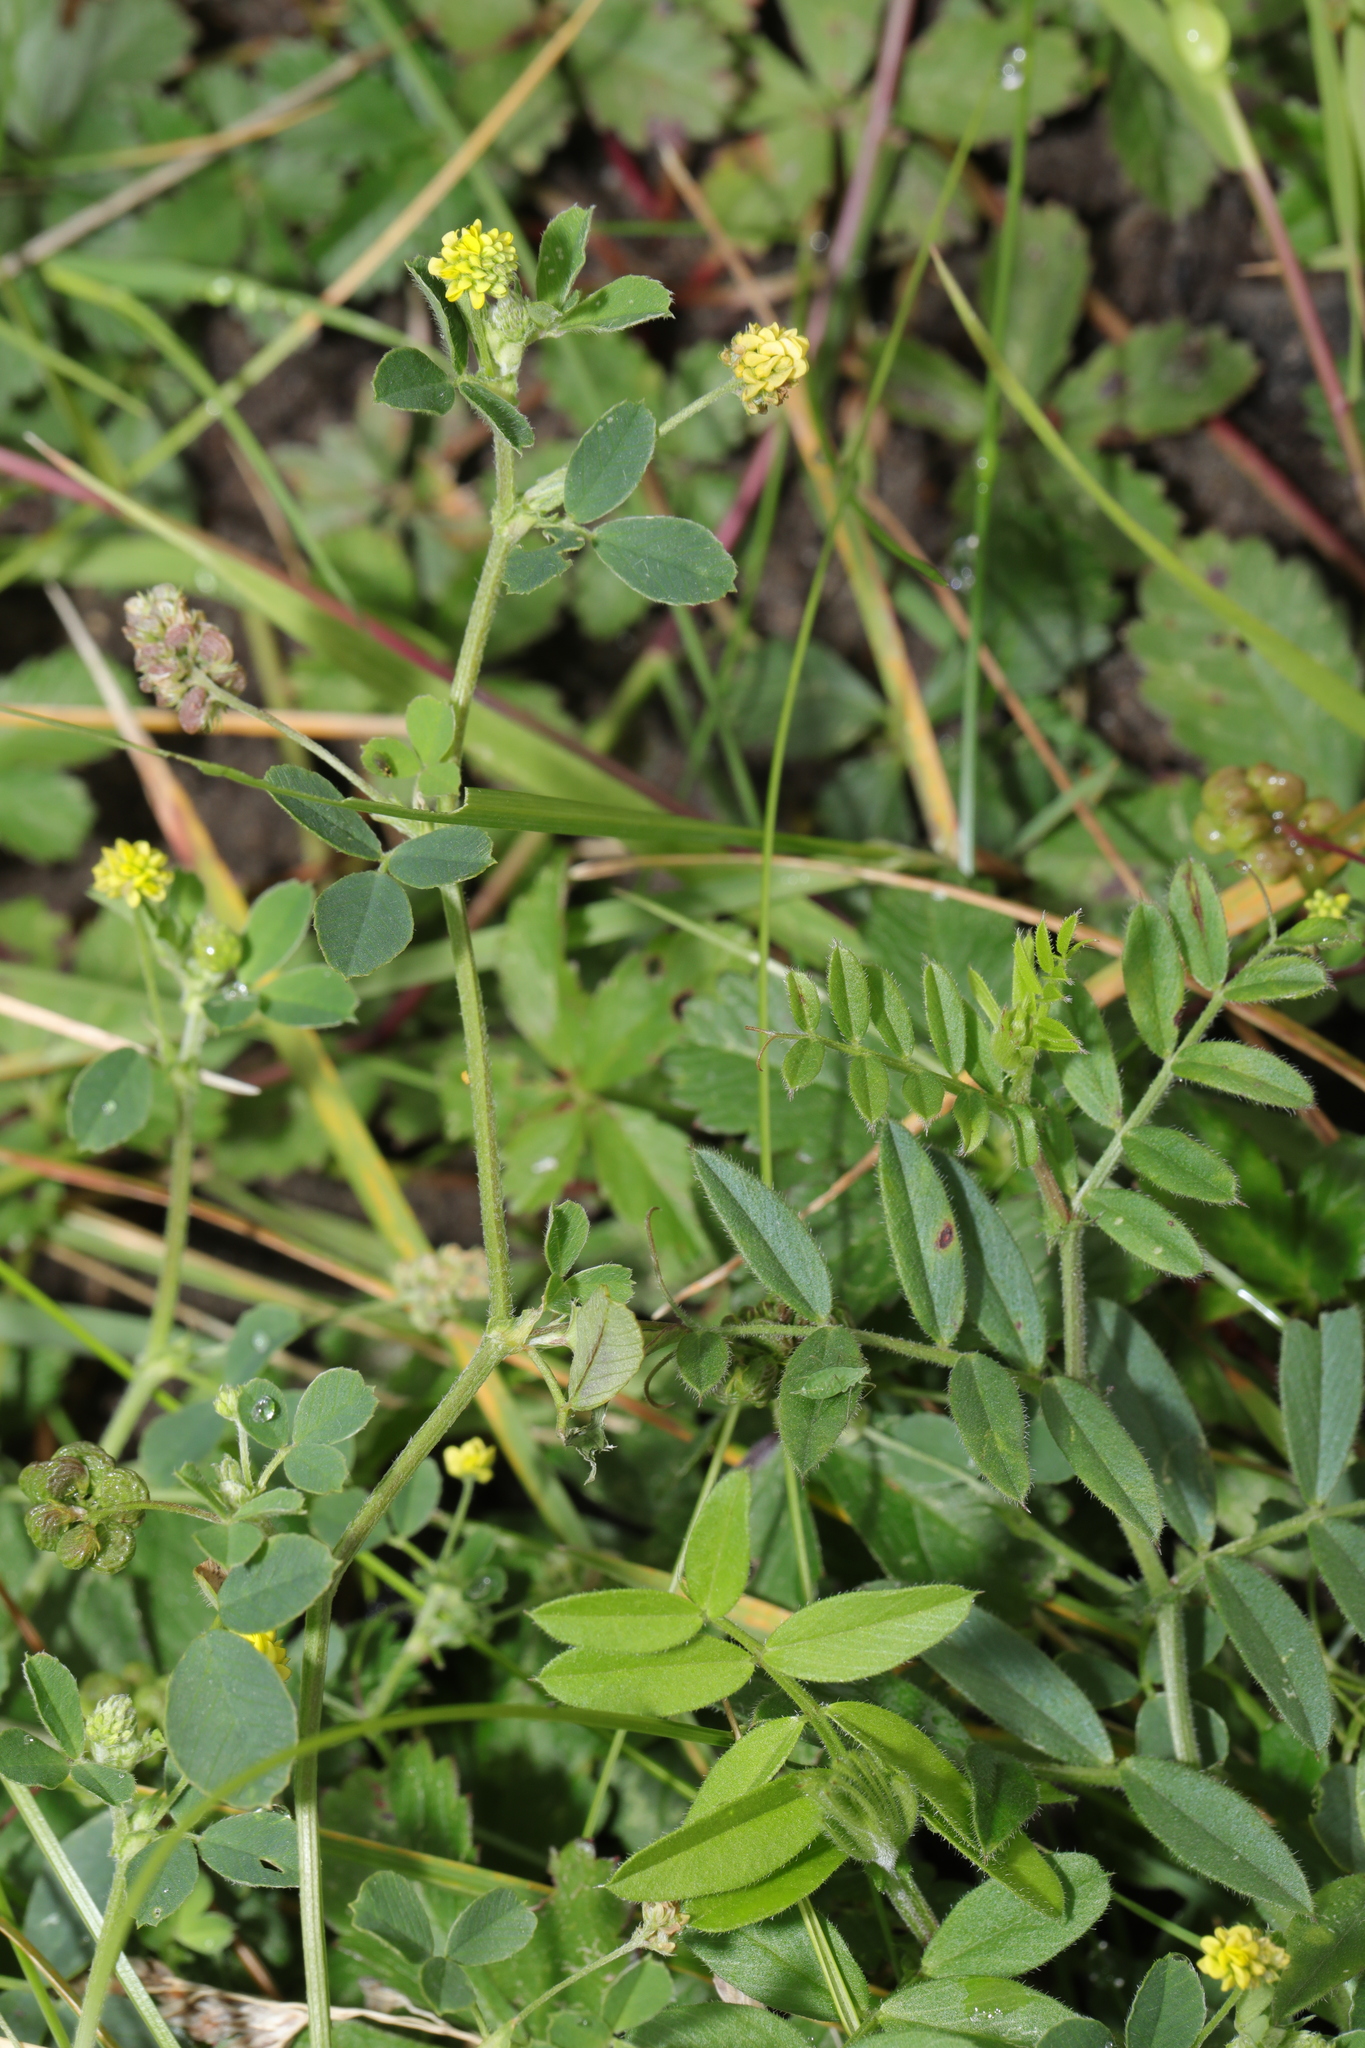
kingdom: Plantae
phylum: Tracheophyta
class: Magnoliopsida
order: Fabales
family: Fabaceae
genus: Medicago
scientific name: Medicago lupulina
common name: Black medick
